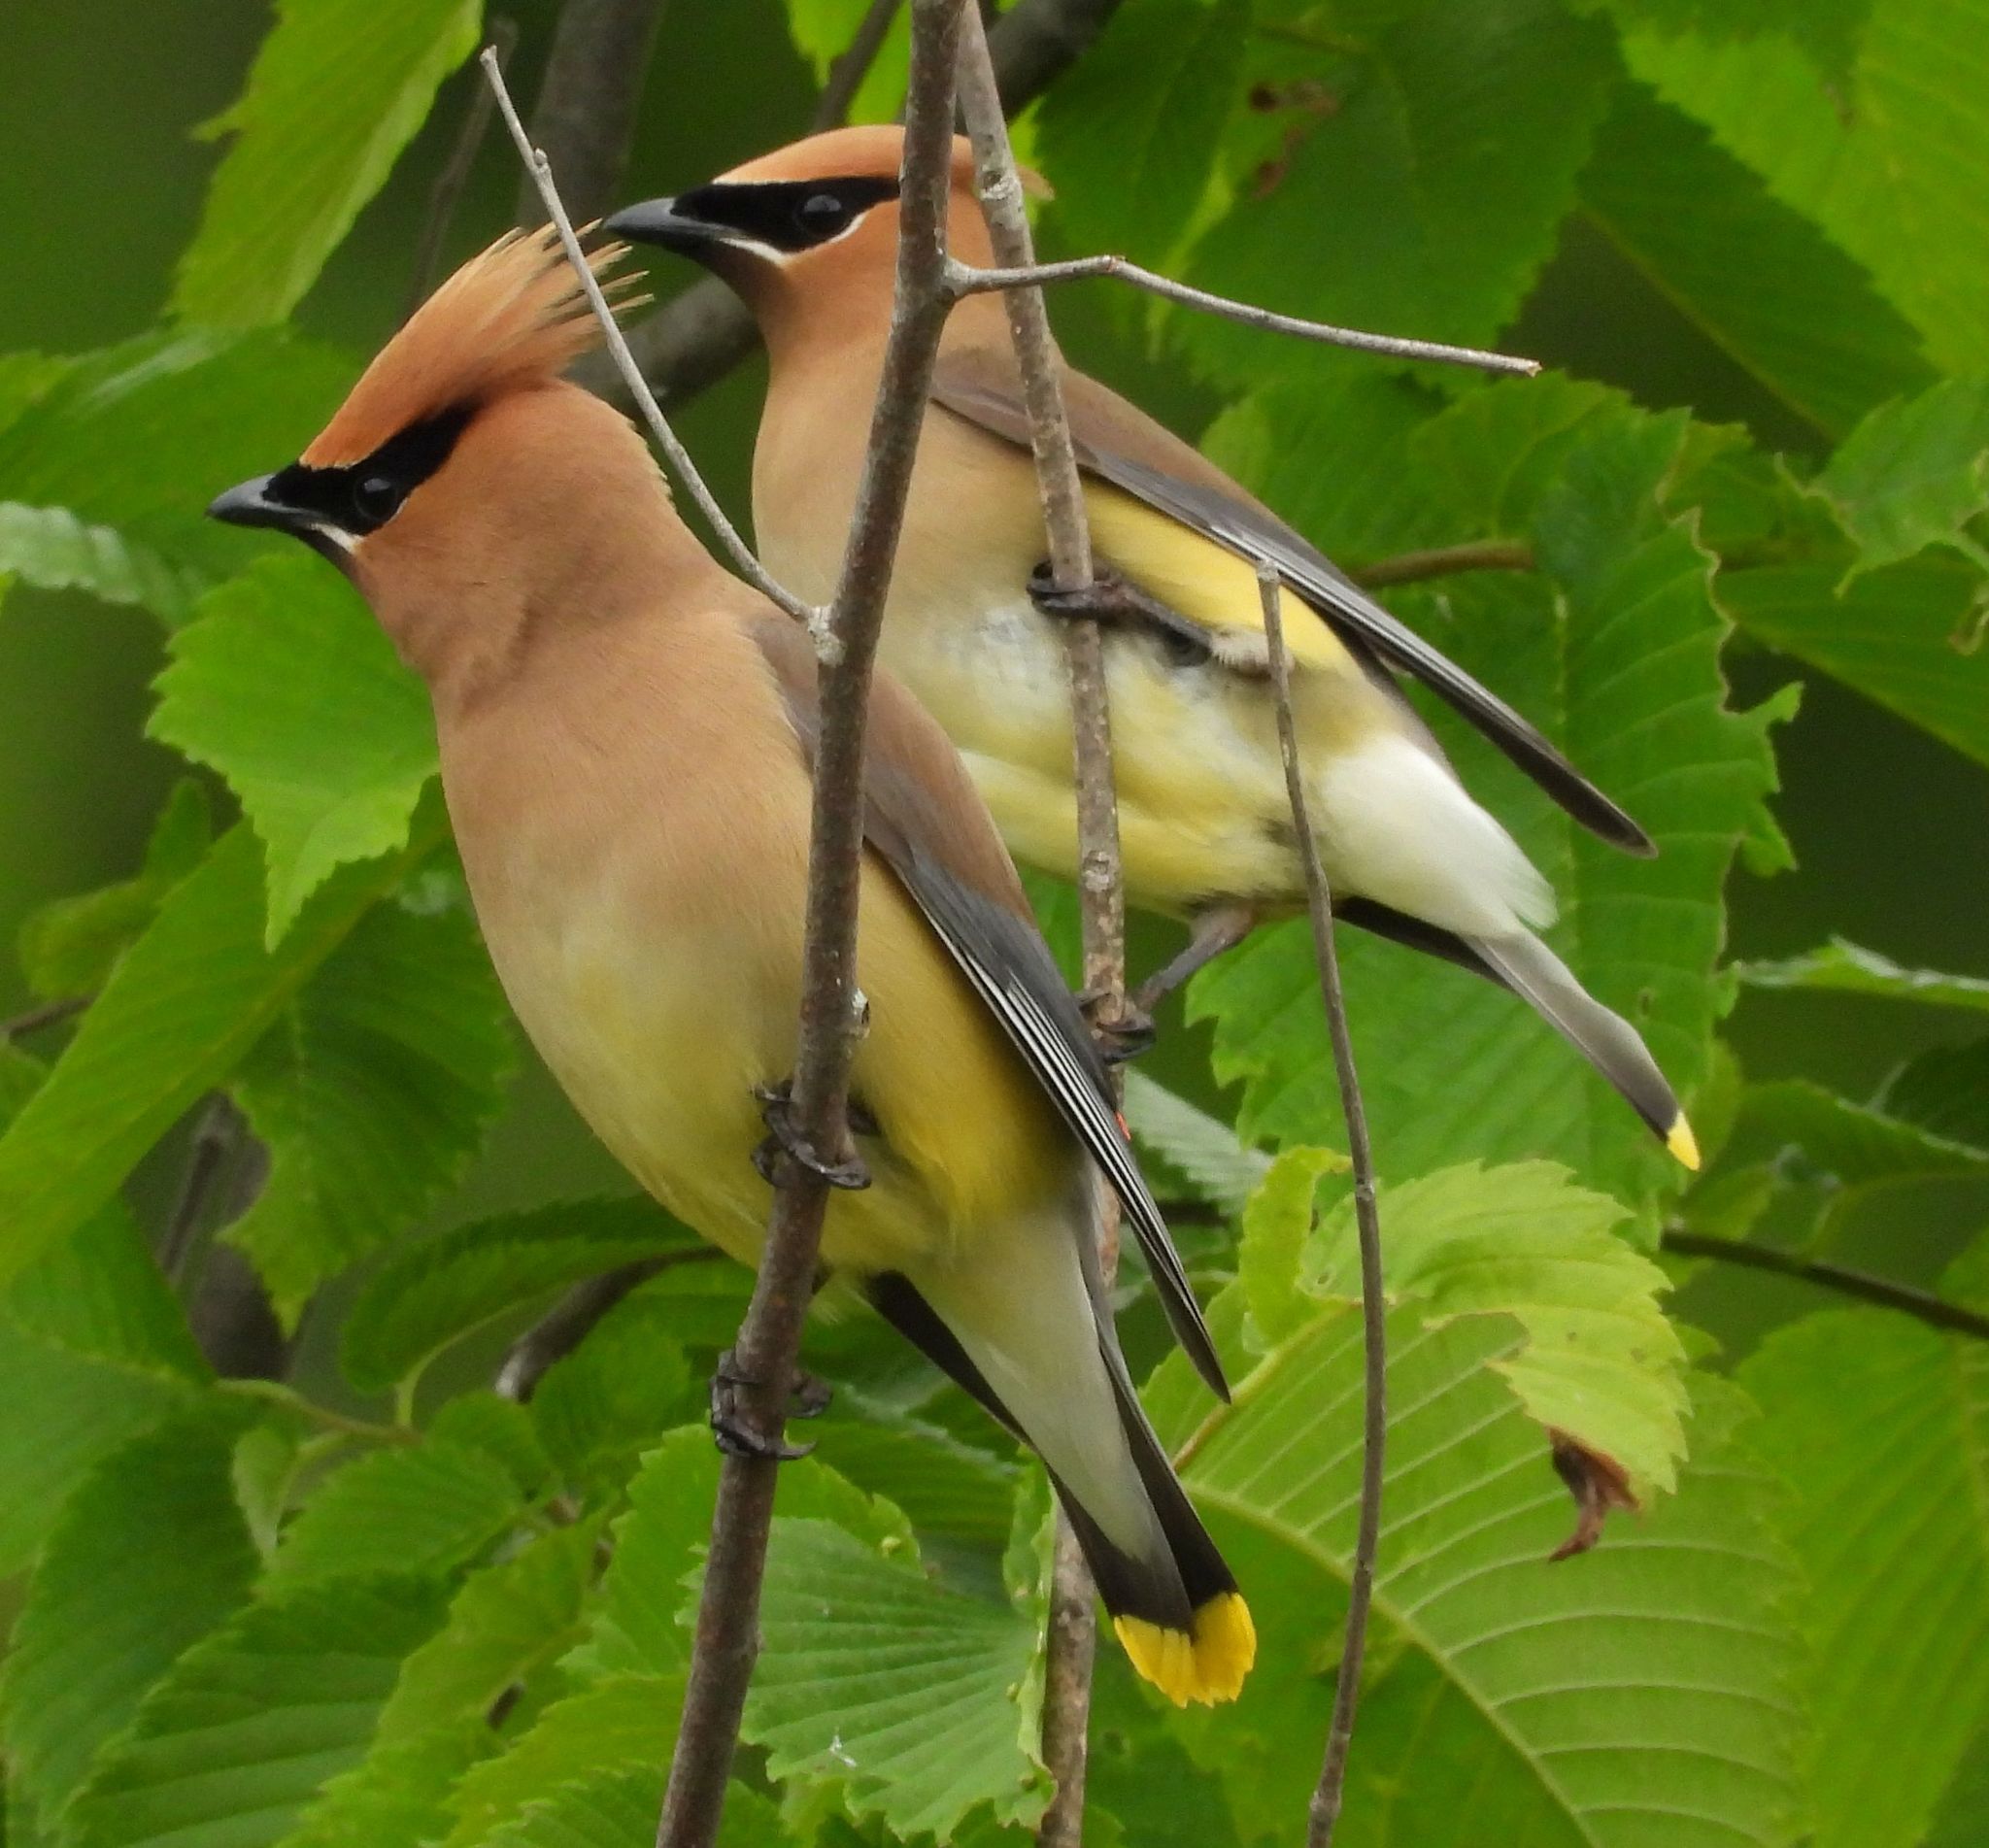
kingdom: Animalia
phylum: Chordata
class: Aves
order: Passeriformes
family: Bombycillidae
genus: Bombycilla
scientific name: Bombycilla cedrorum
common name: Cedar waxwing
